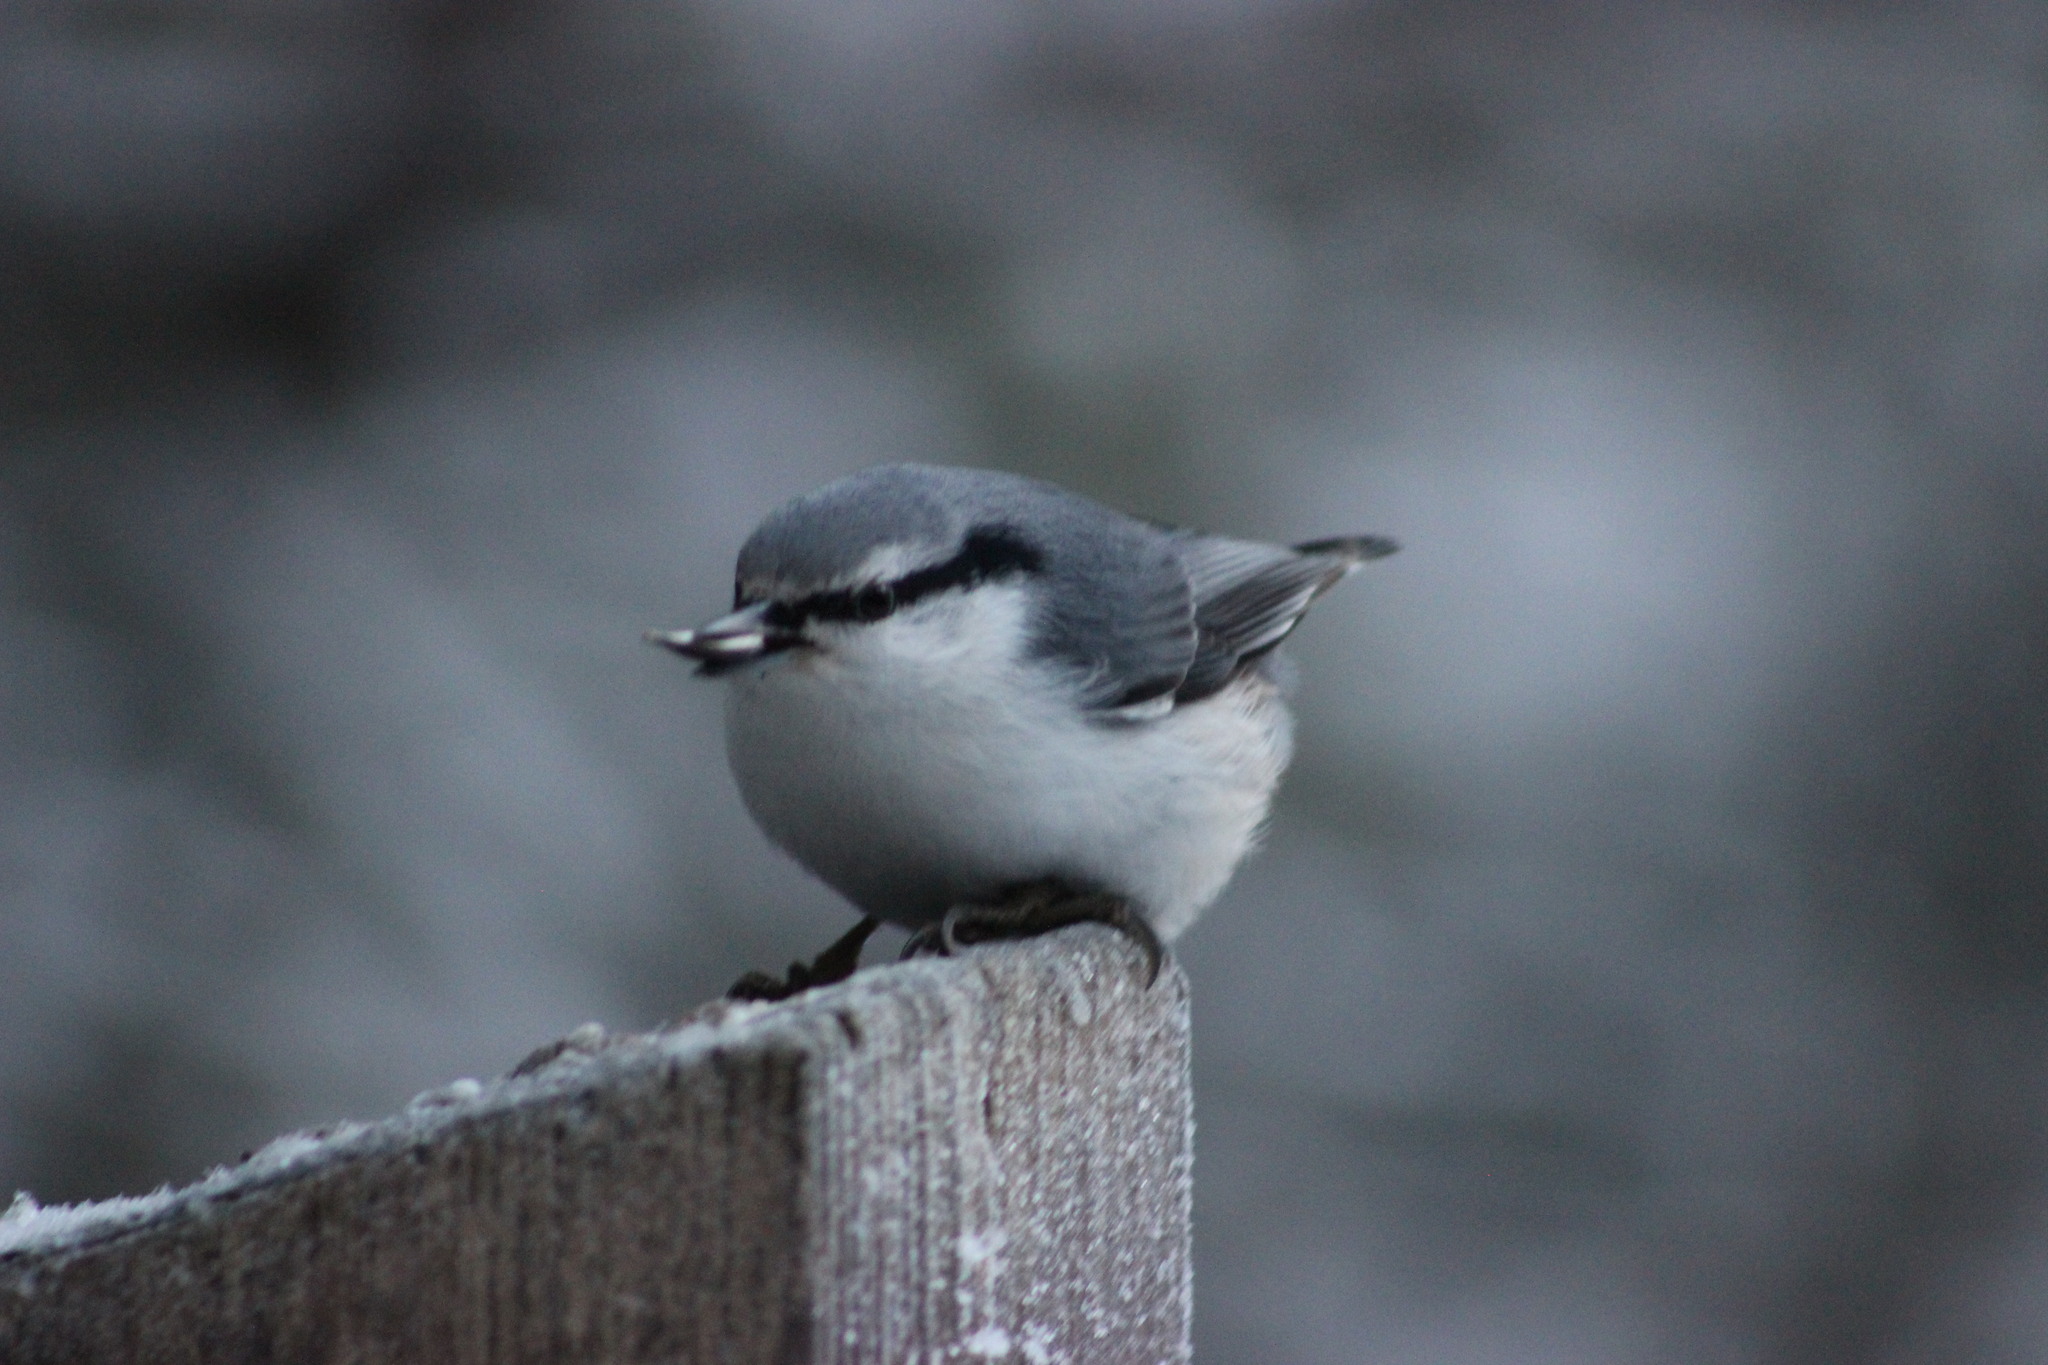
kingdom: Animalia
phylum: Chordata
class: Aves
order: Passeriformes
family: Sittidae
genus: Sitta
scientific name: Sitta europaea
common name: Eurasian nuthatch
